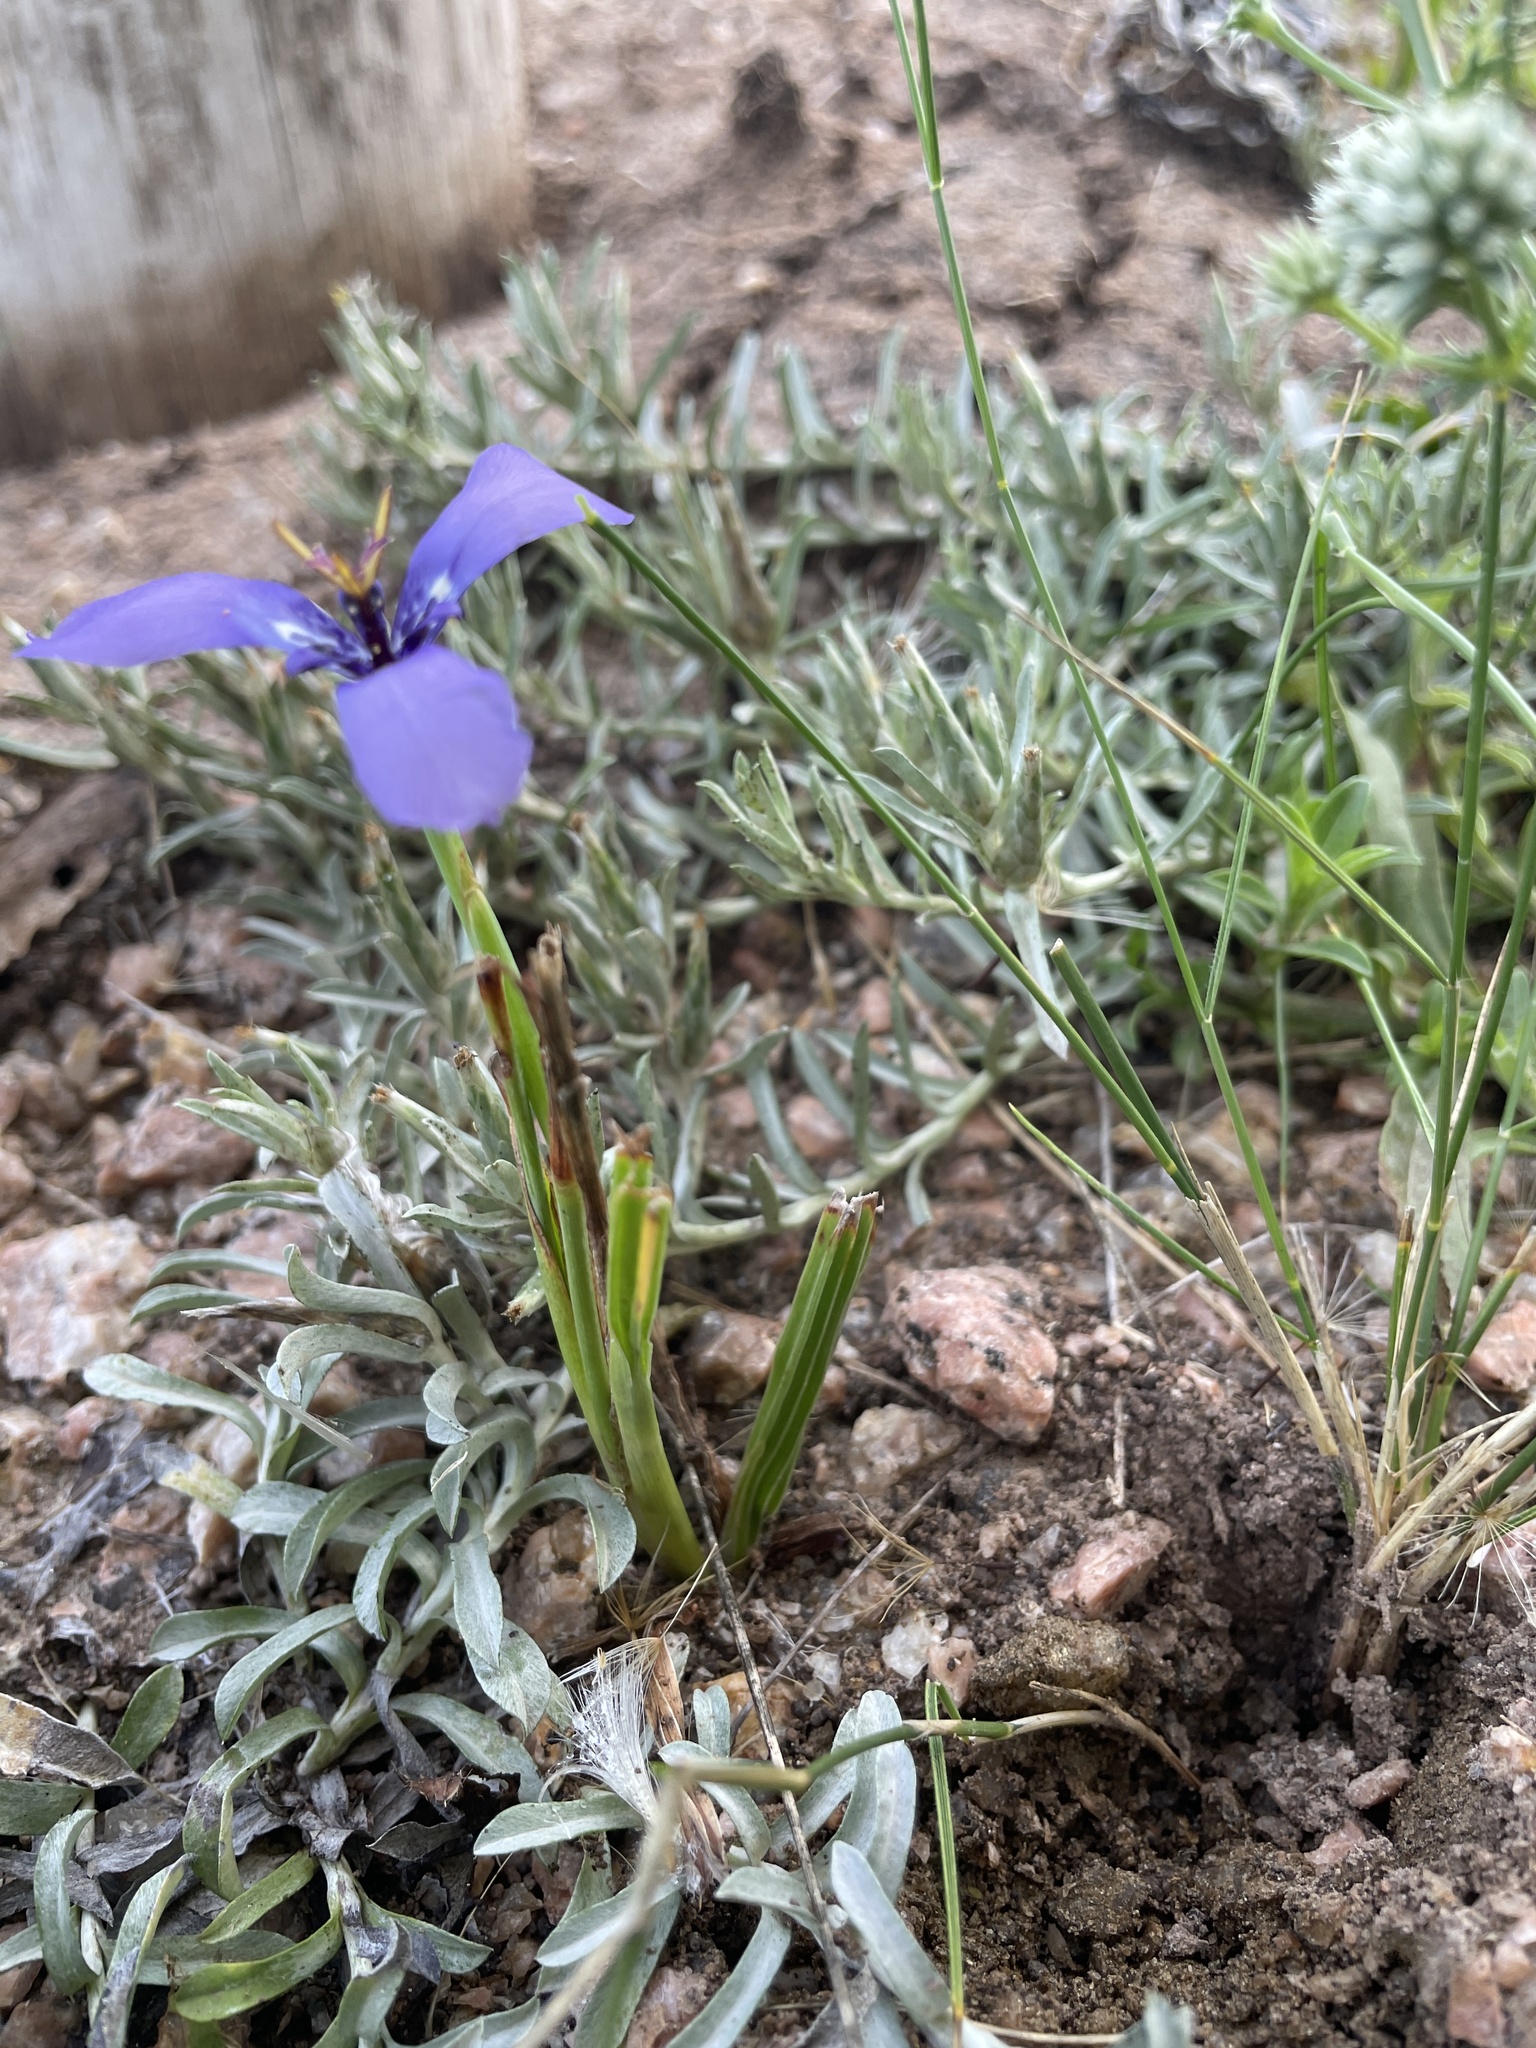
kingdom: Plantae
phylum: Tracheophyta
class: Liliopsida
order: Asparagales
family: Iridaceae
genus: Herbertia
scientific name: Herbertia lahue
